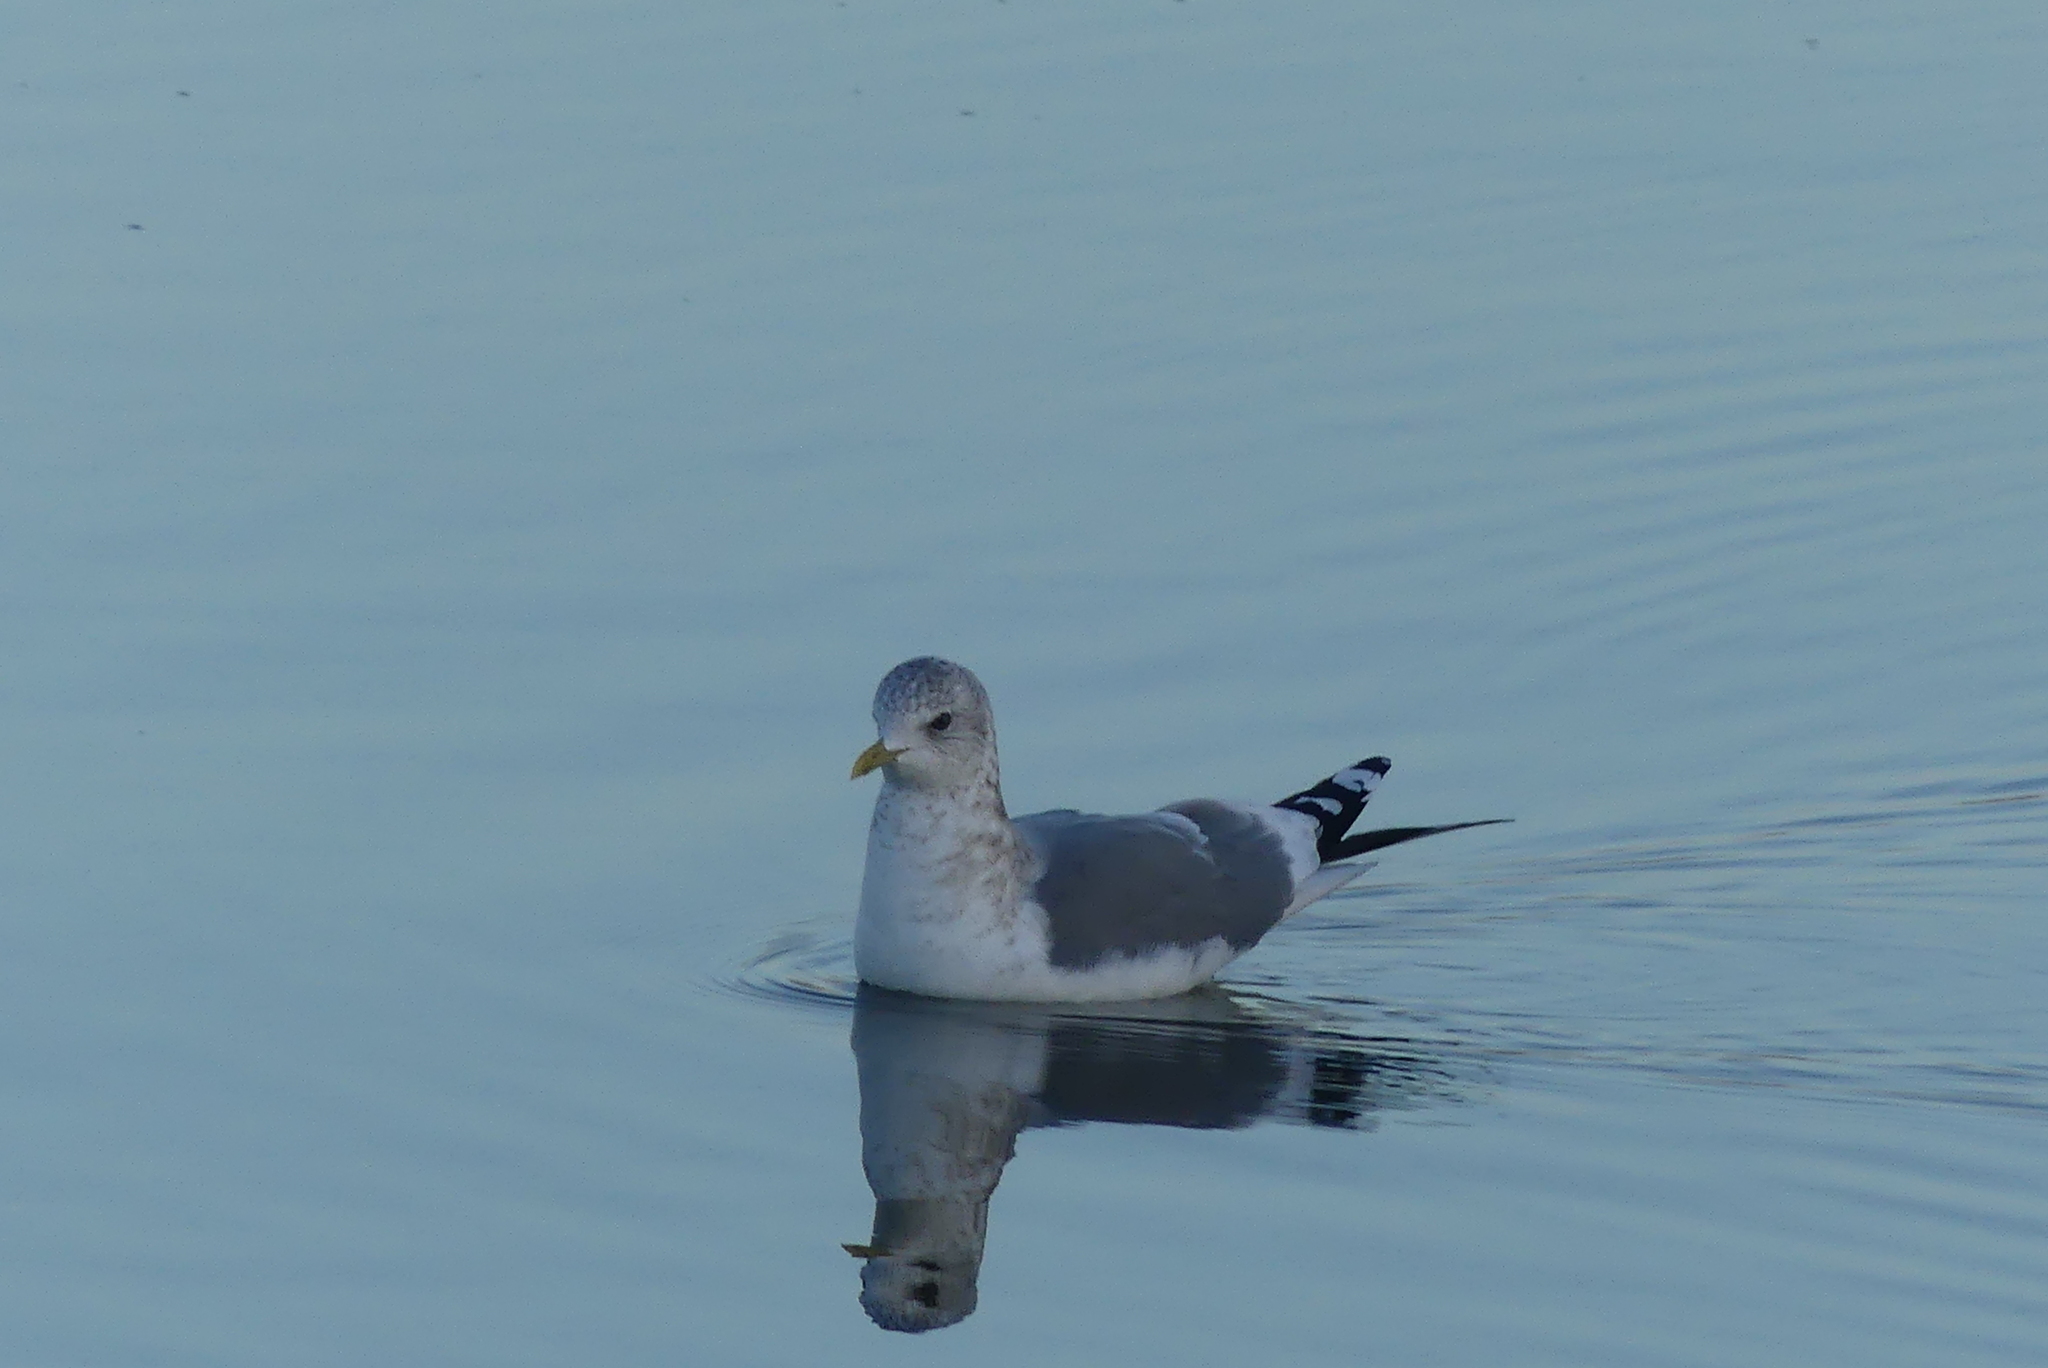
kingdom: Animalia
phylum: Chordata
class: Aves
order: Charadriiformes
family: Laridae
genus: Larus
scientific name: Larus brachyrhynchus
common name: Short-billed gull
